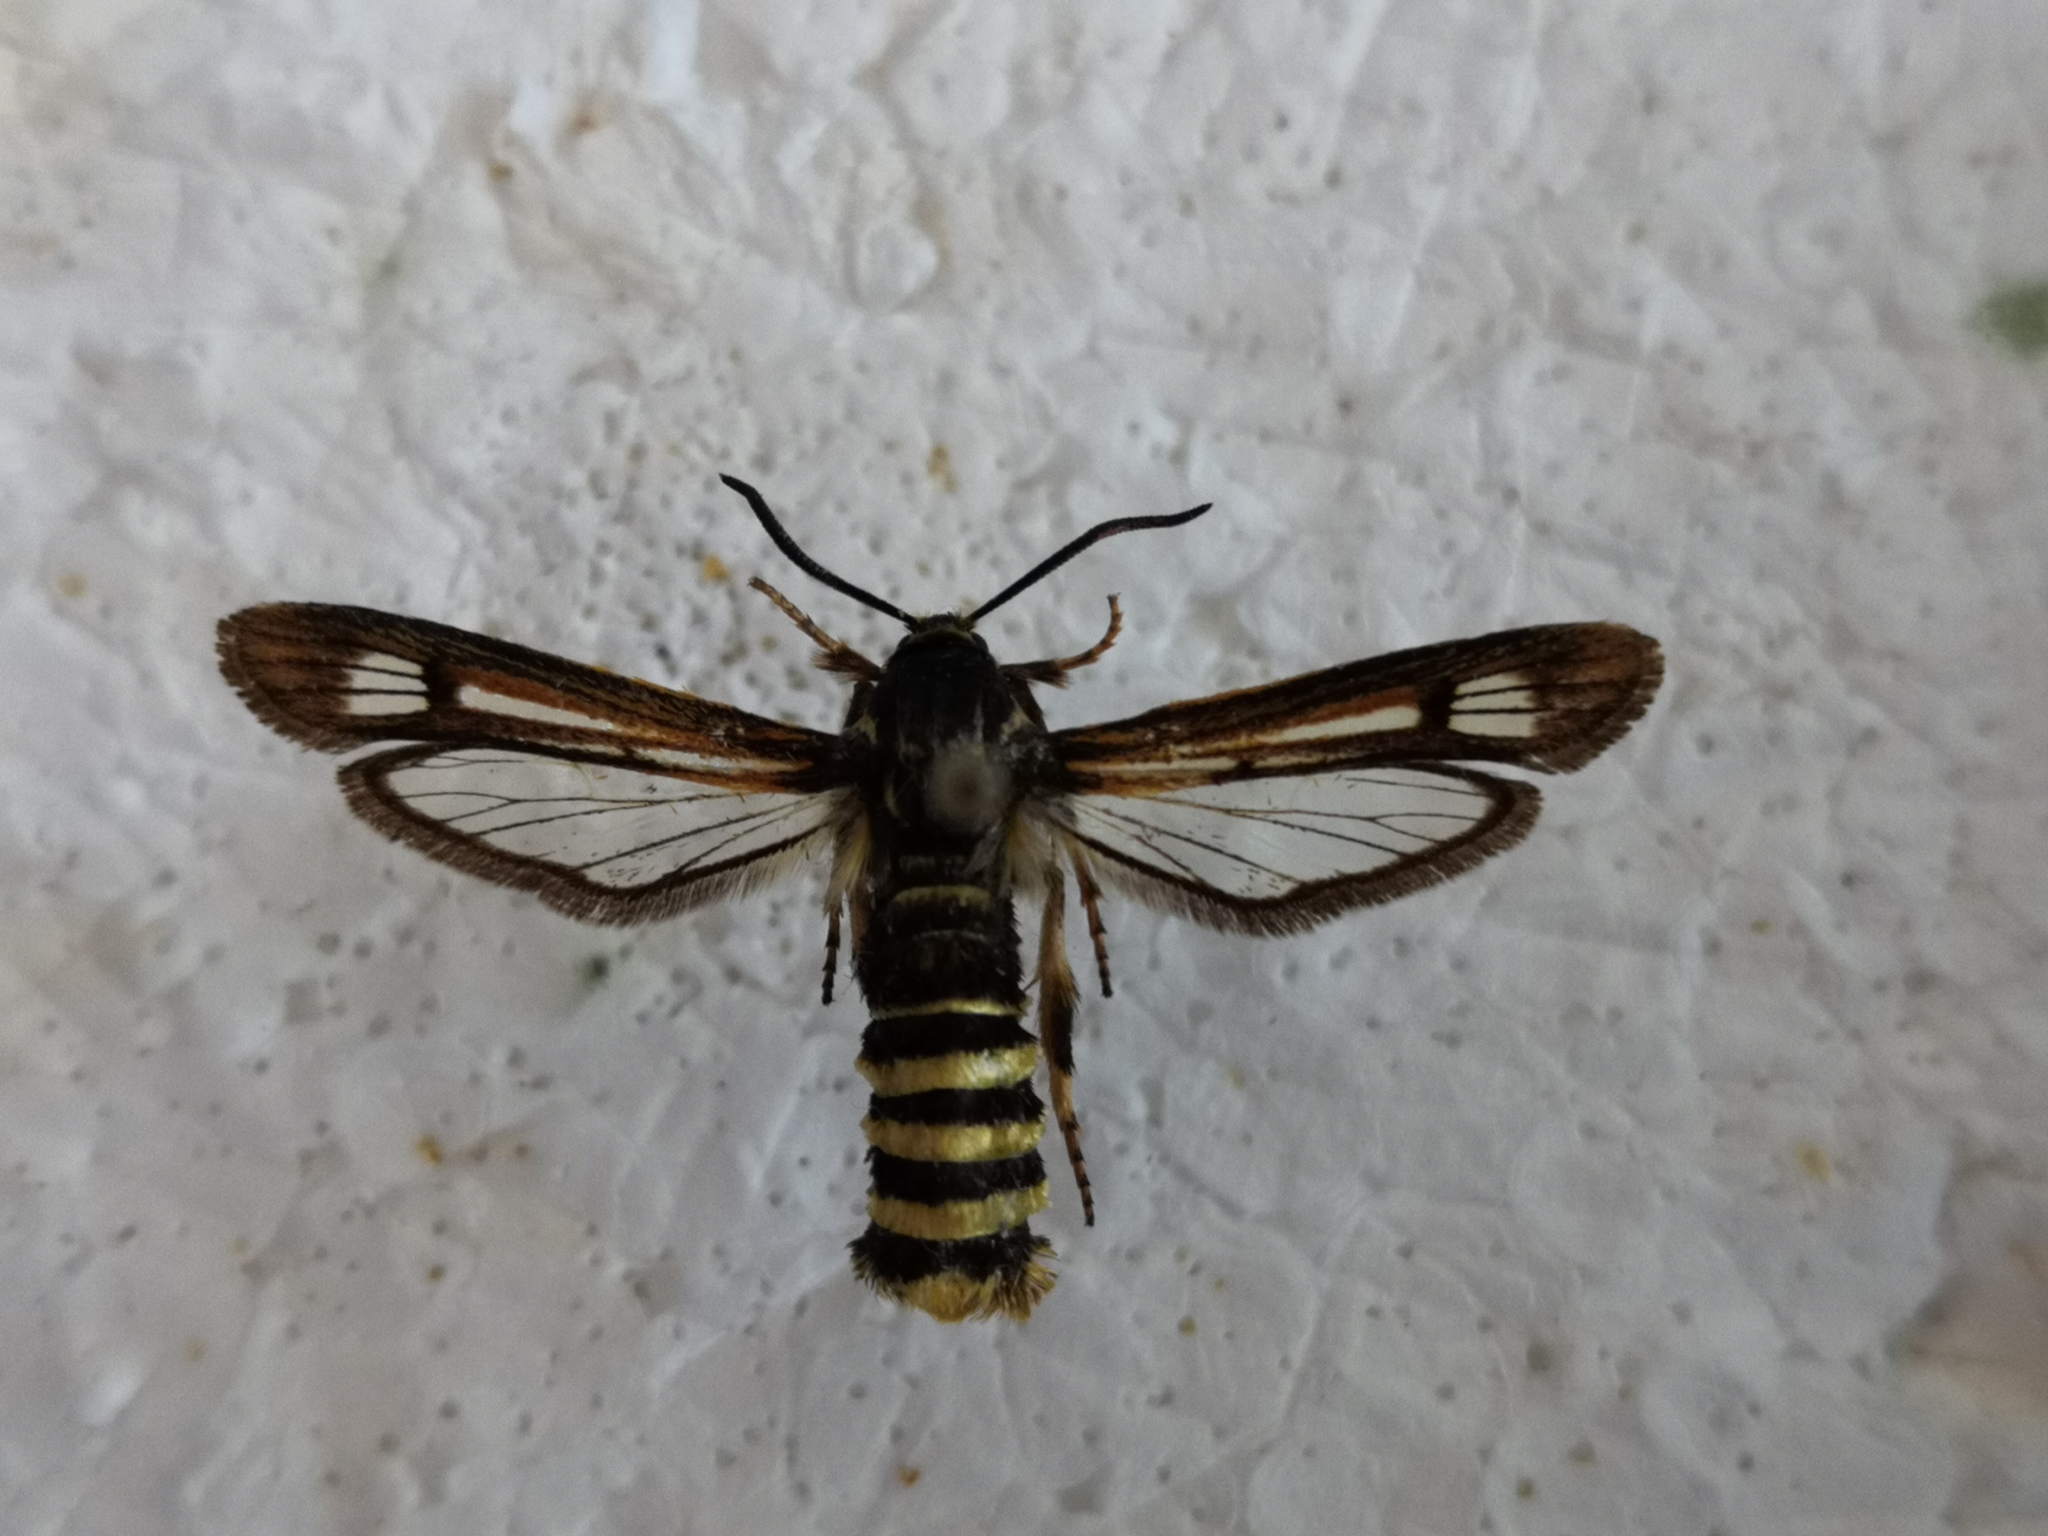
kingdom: Animalia
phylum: Arthropoda
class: Insecta
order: Lepidoptera
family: Sesiidae
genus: Pennisetia
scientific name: Pennisetia hylaeiformis
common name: Raspberry clearwing
